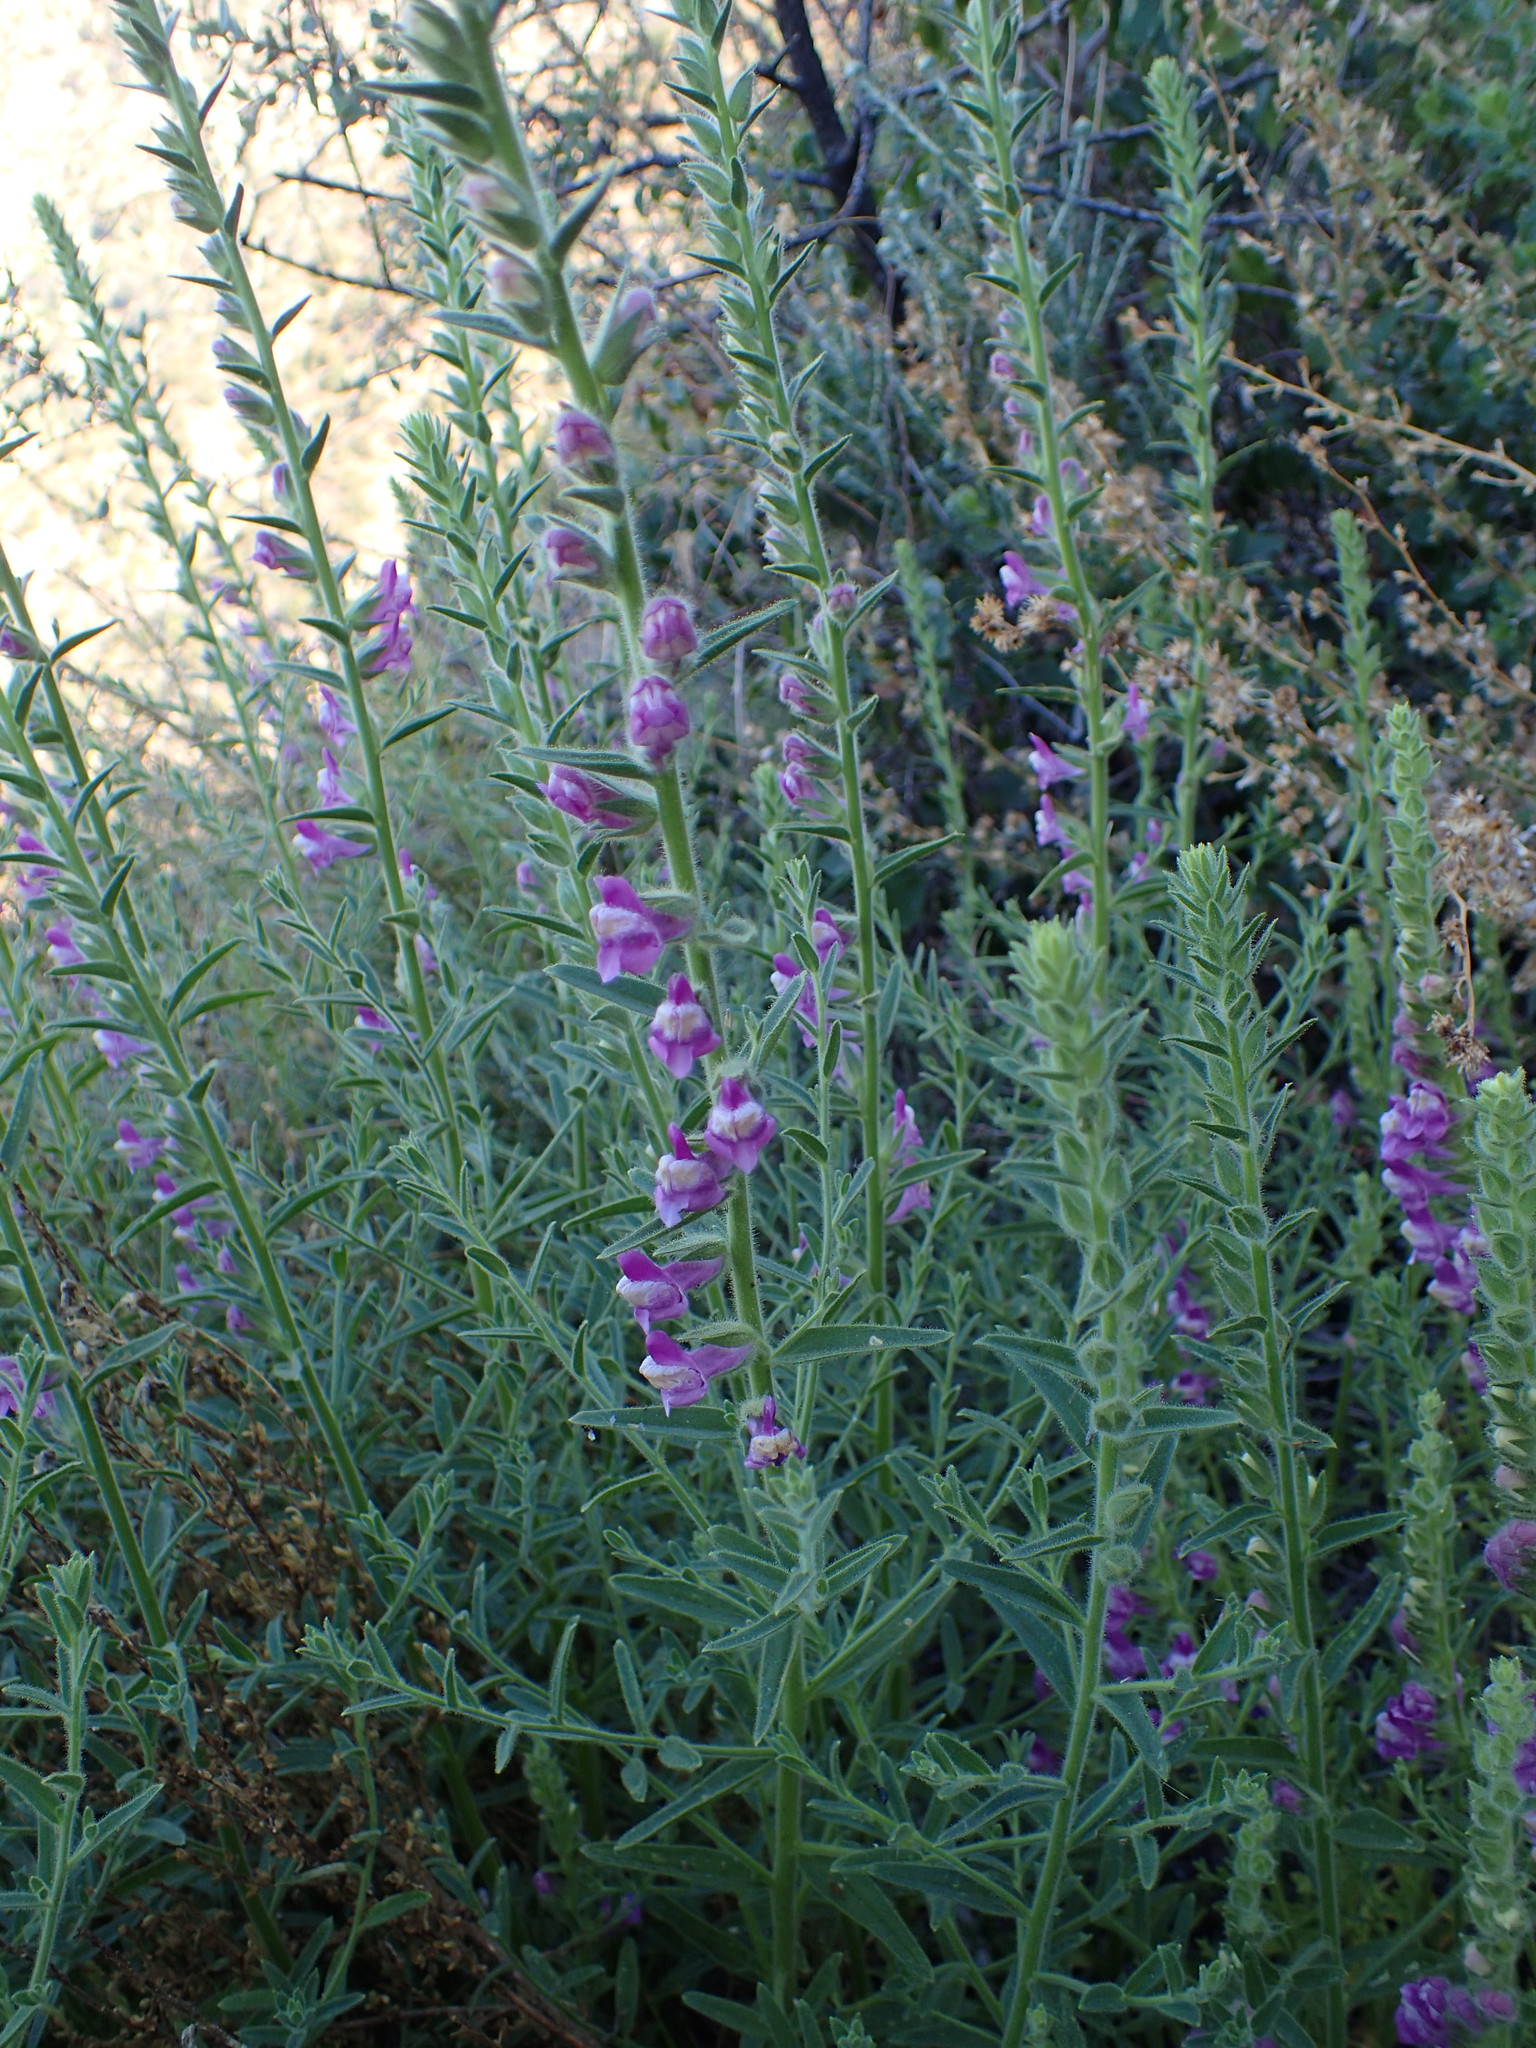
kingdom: Plantae
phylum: Tracheophyta
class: Magnoliopsida
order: Lamiales
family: Plantaginaceae
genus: Sairocarpus
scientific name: Sairocarpus multiflorus
